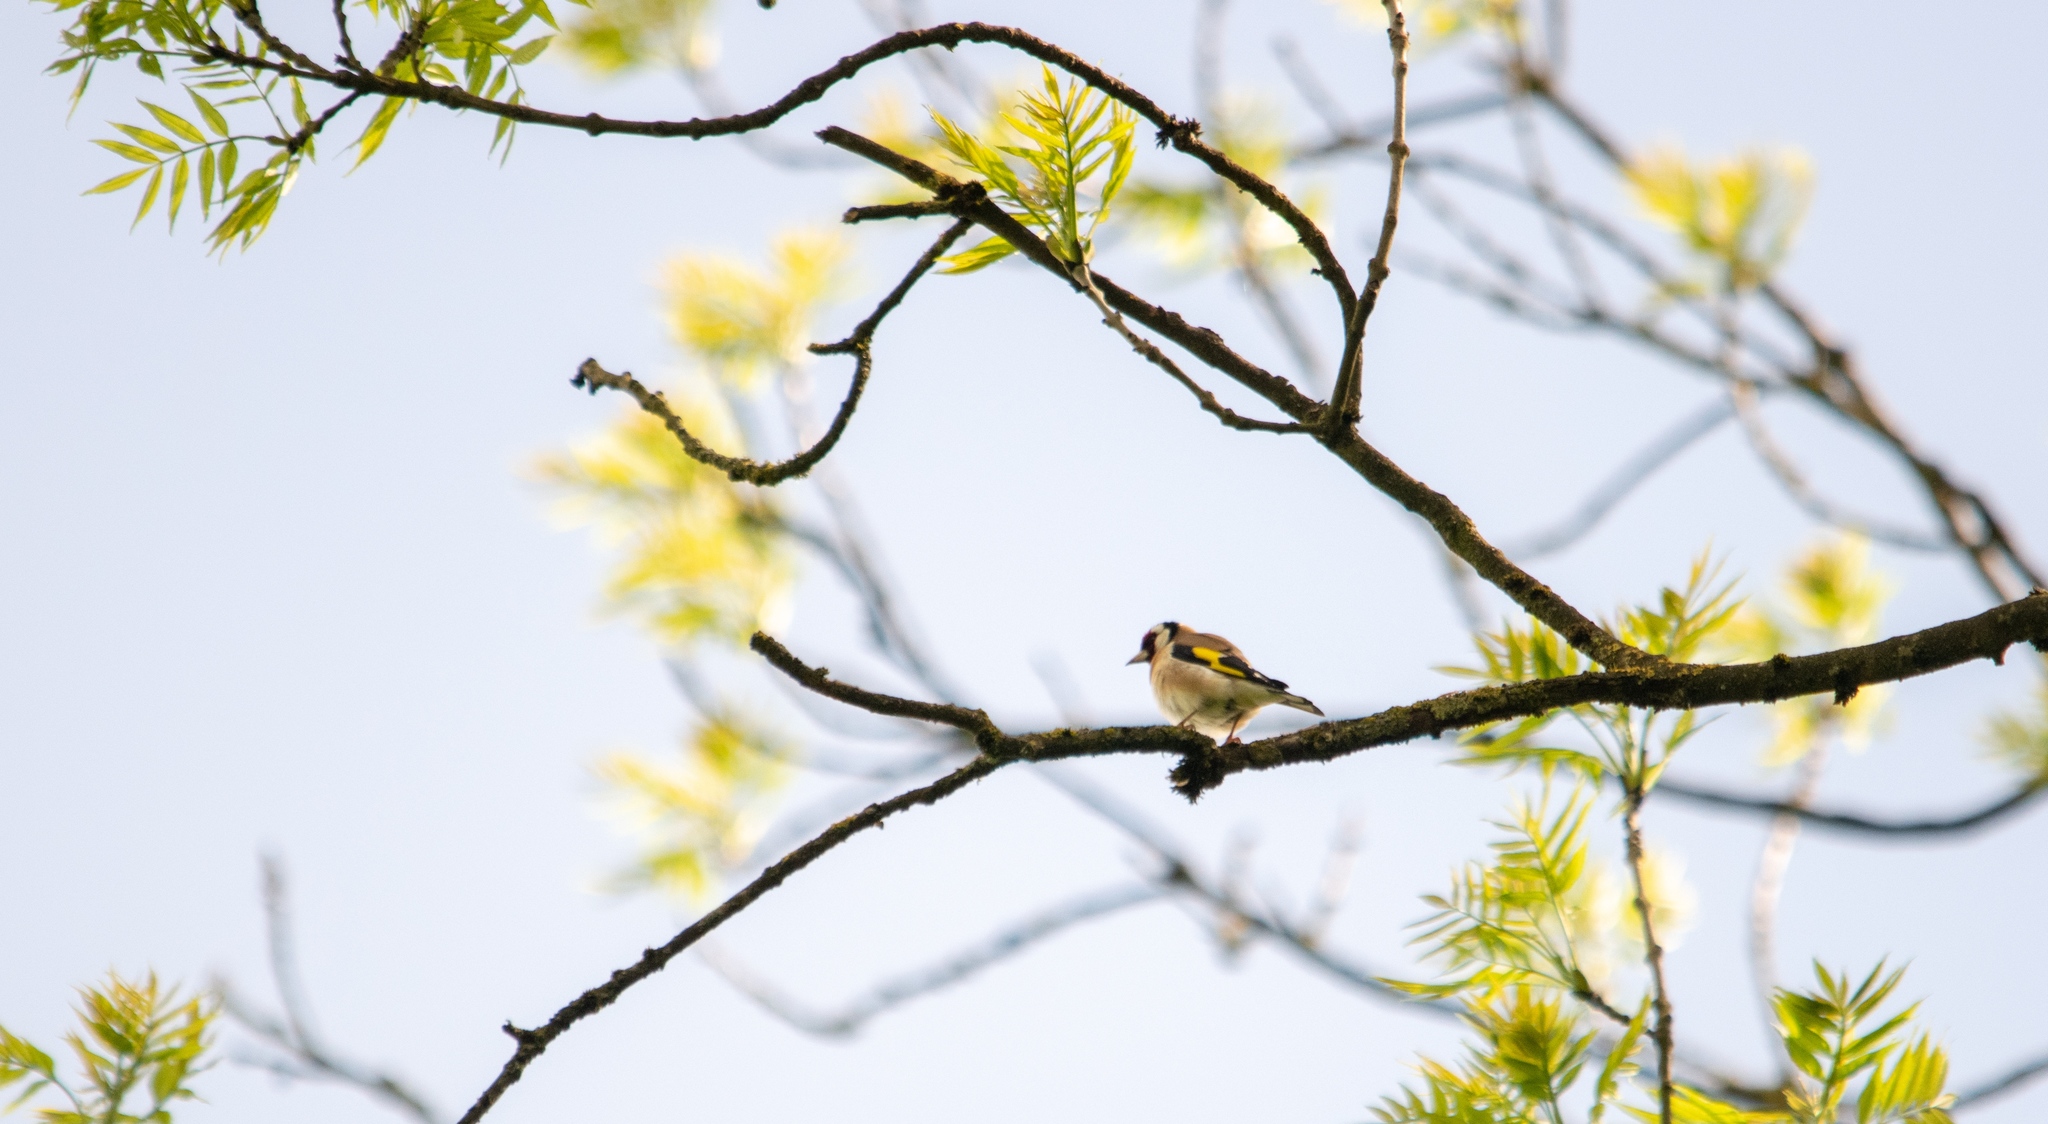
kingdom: Animalia
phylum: Chordata
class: Aves
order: Passeriformes
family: Fringillidae
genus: Carduelis
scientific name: Carduelis carduelis
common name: European goldfinch
